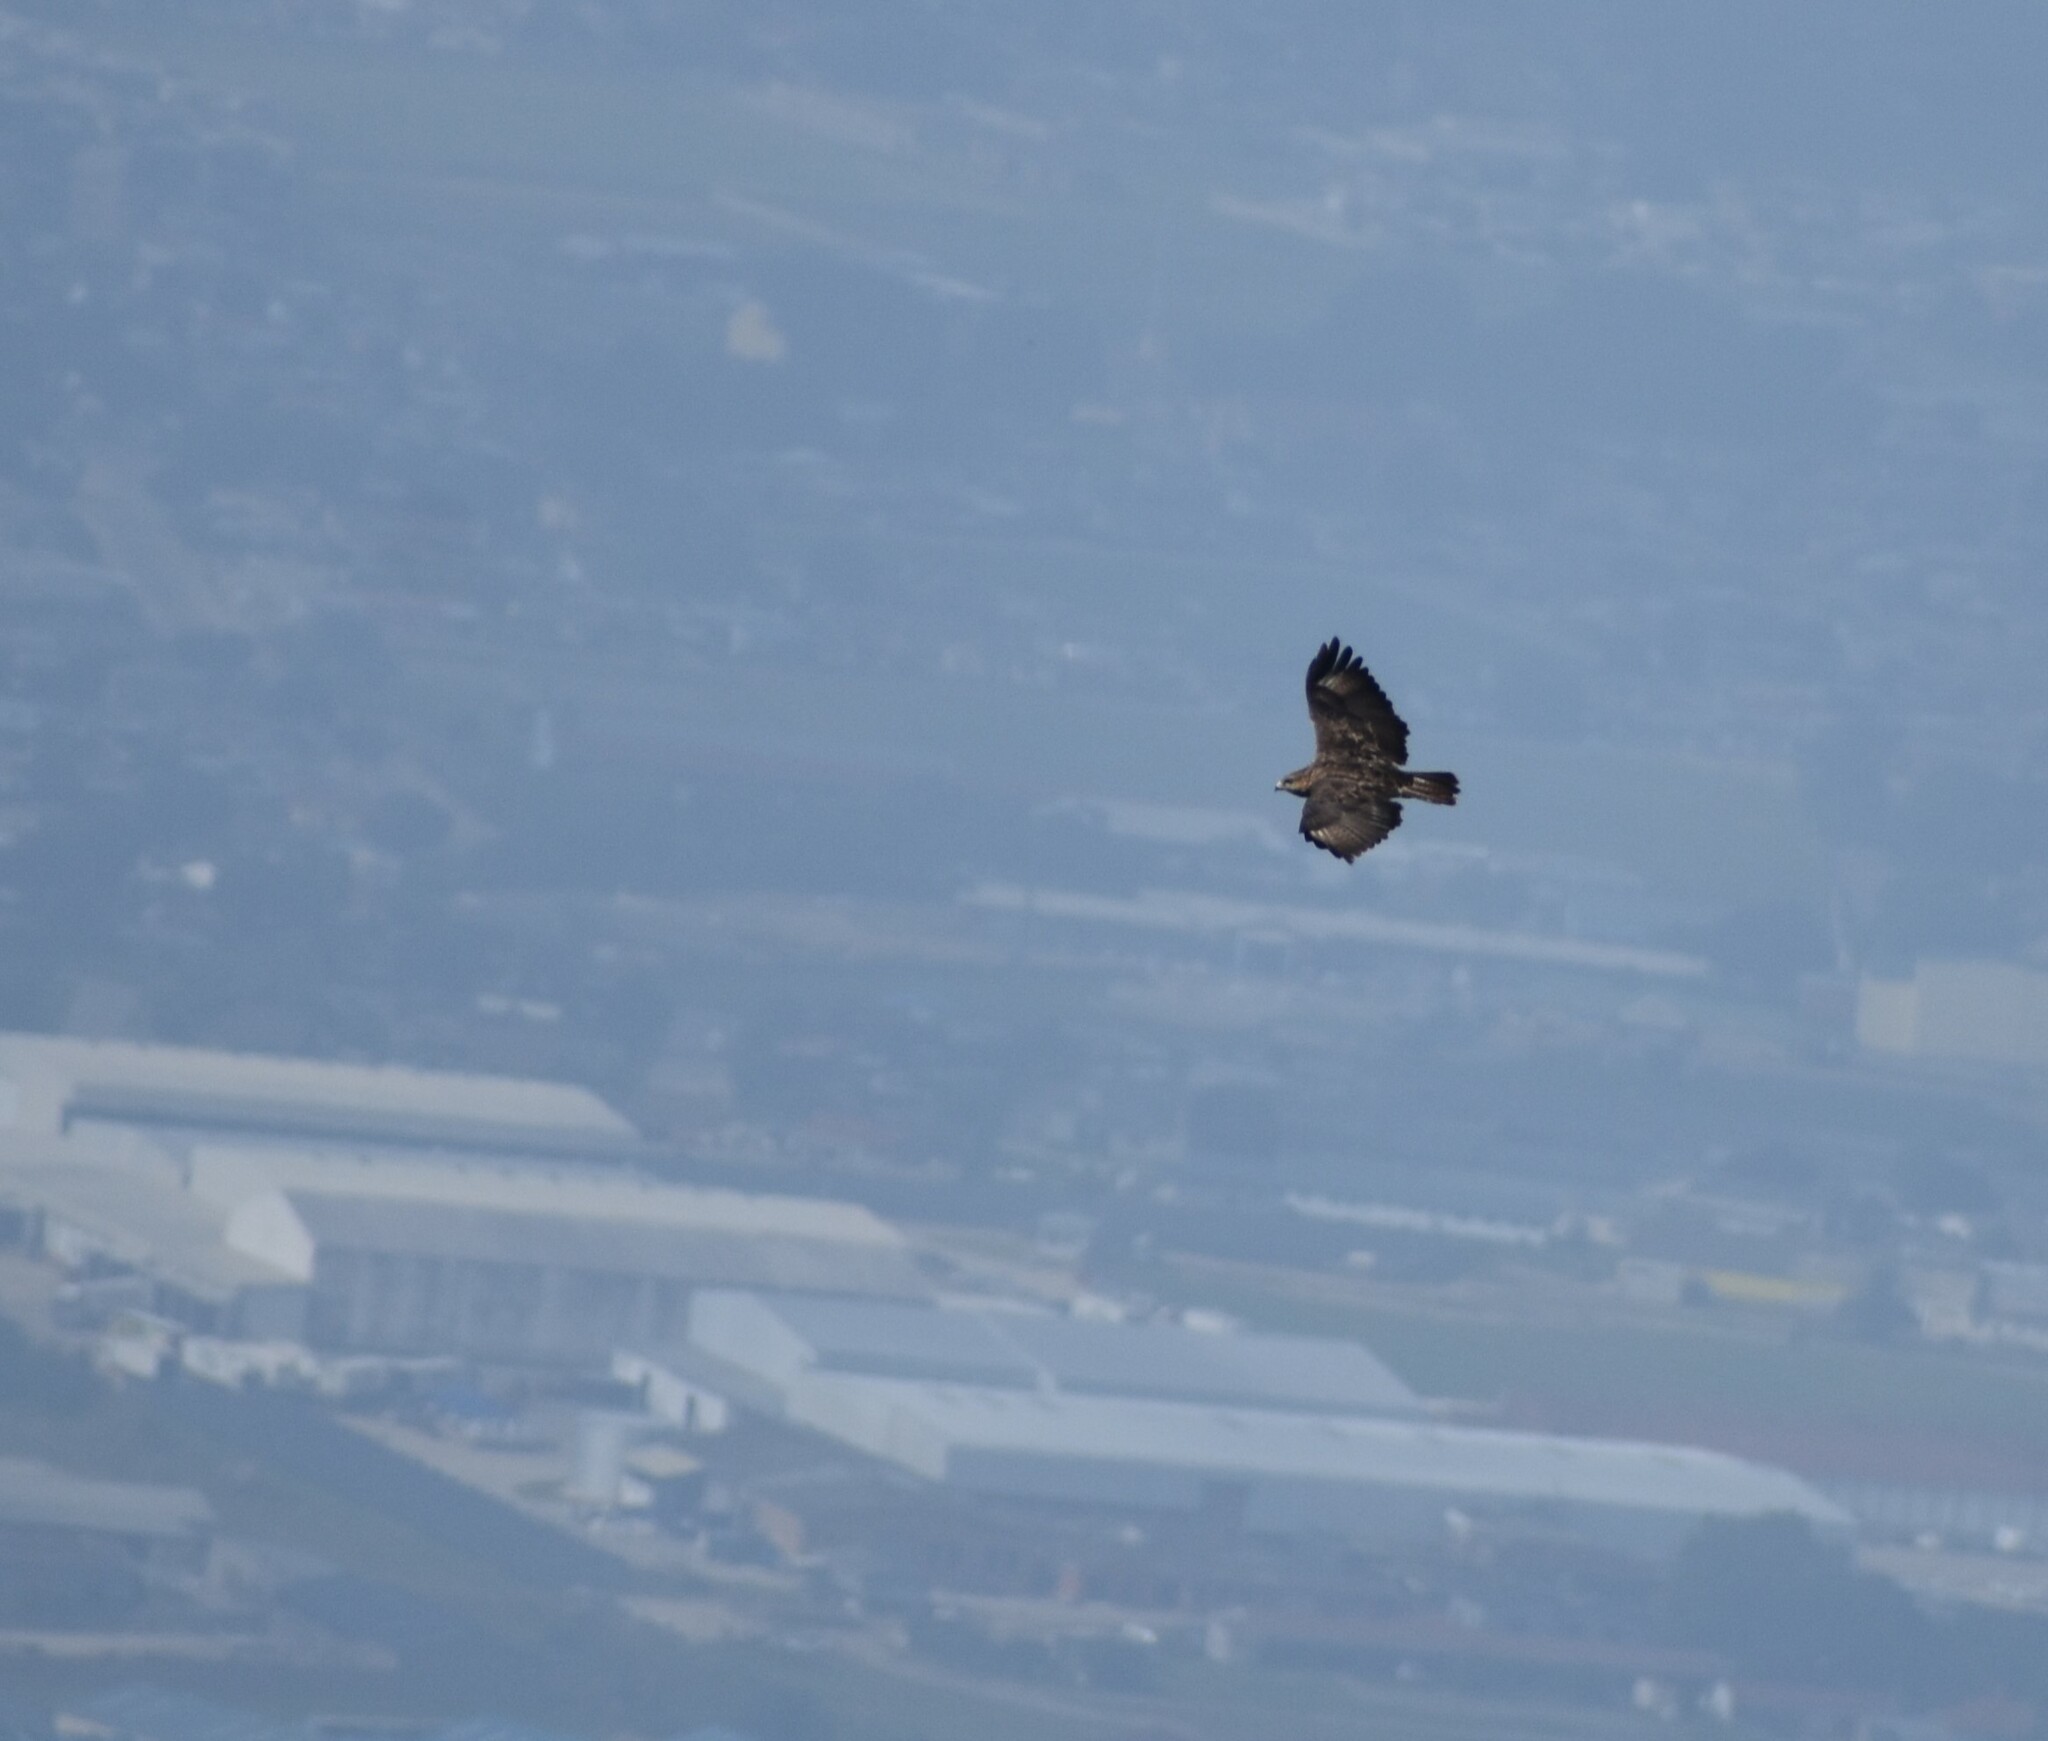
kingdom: Animalia
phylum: Chordata
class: Aves
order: Accipitriformes
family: Accipitridae
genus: Buteo
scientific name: Buteo trizonatus
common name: Forest buzzard
